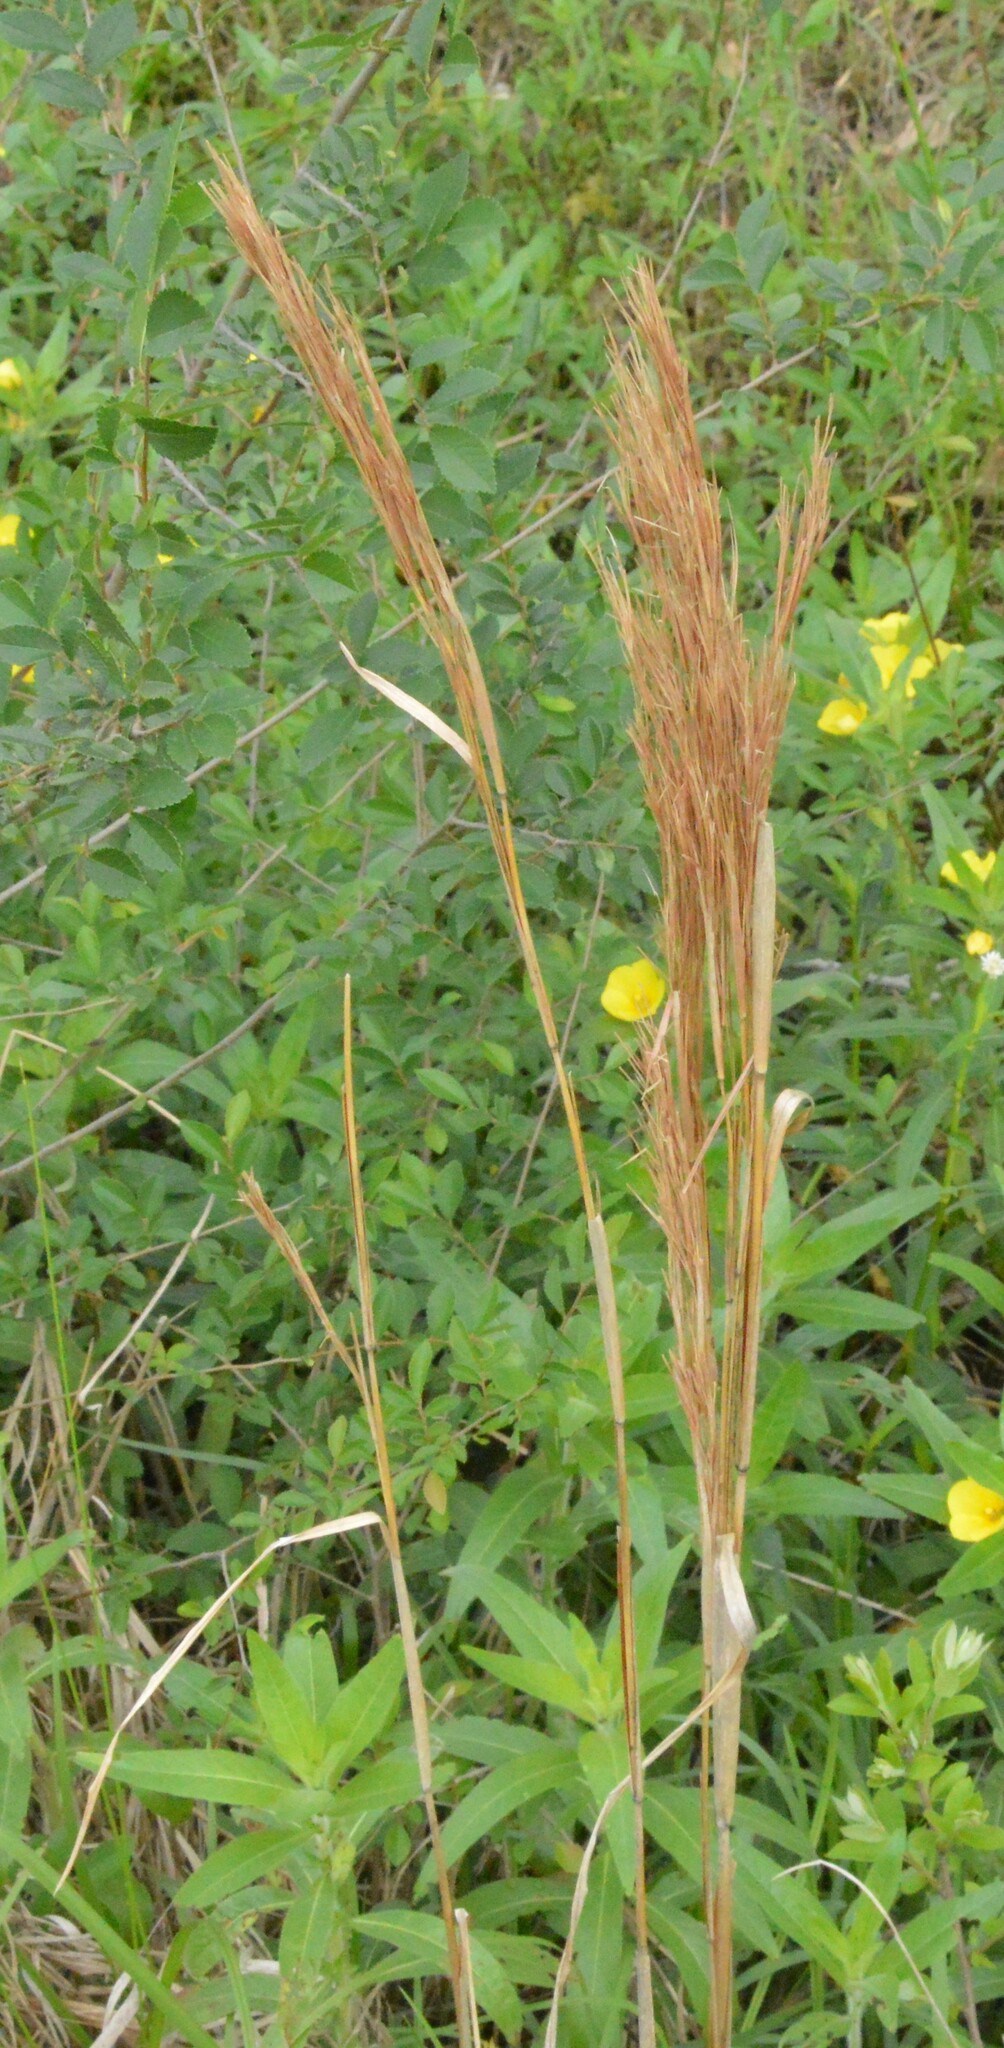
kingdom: Plantae
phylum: Tracheophyta
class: Liliopsida
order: Poales
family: Poaceae
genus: Andropogon
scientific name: Andropogon tenuispatheus
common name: Bushy bluestem
